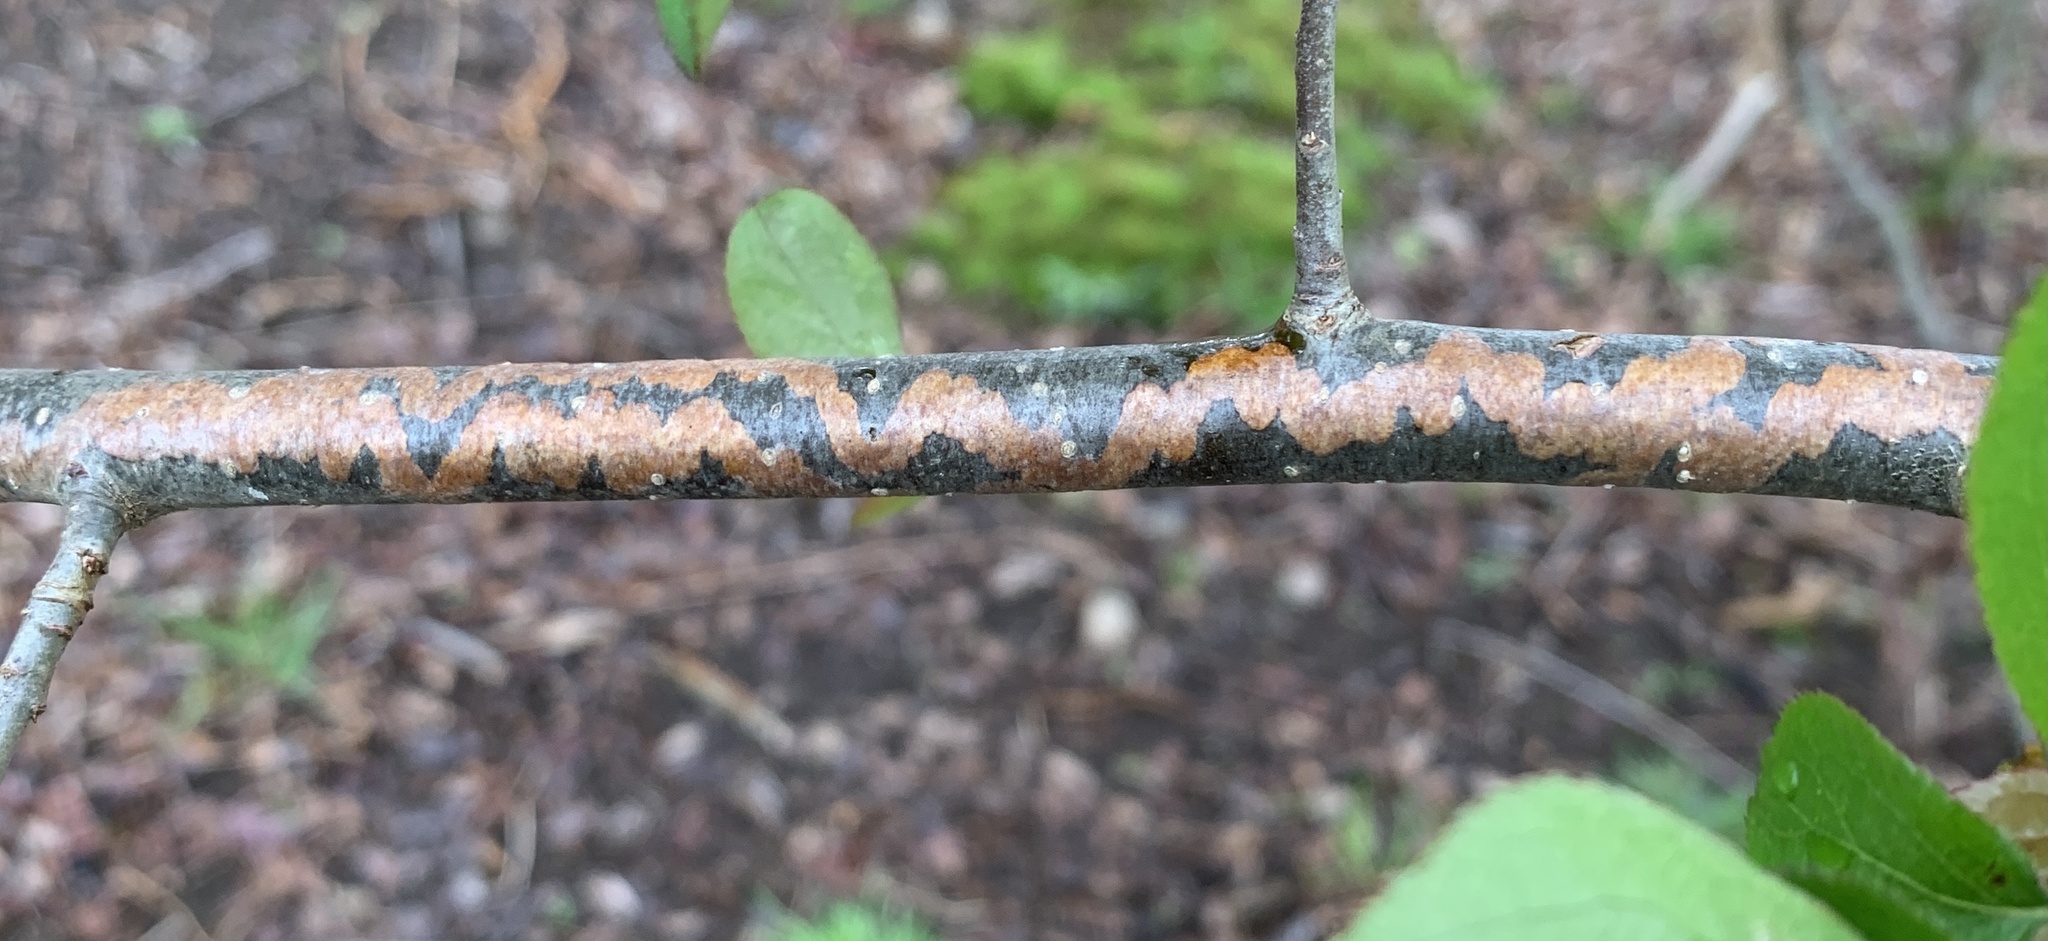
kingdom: Animalia
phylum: Arthropoda
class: Insecta
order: Lepidoptera
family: Gracillariidae
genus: Marmara
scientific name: Marmara elotella
